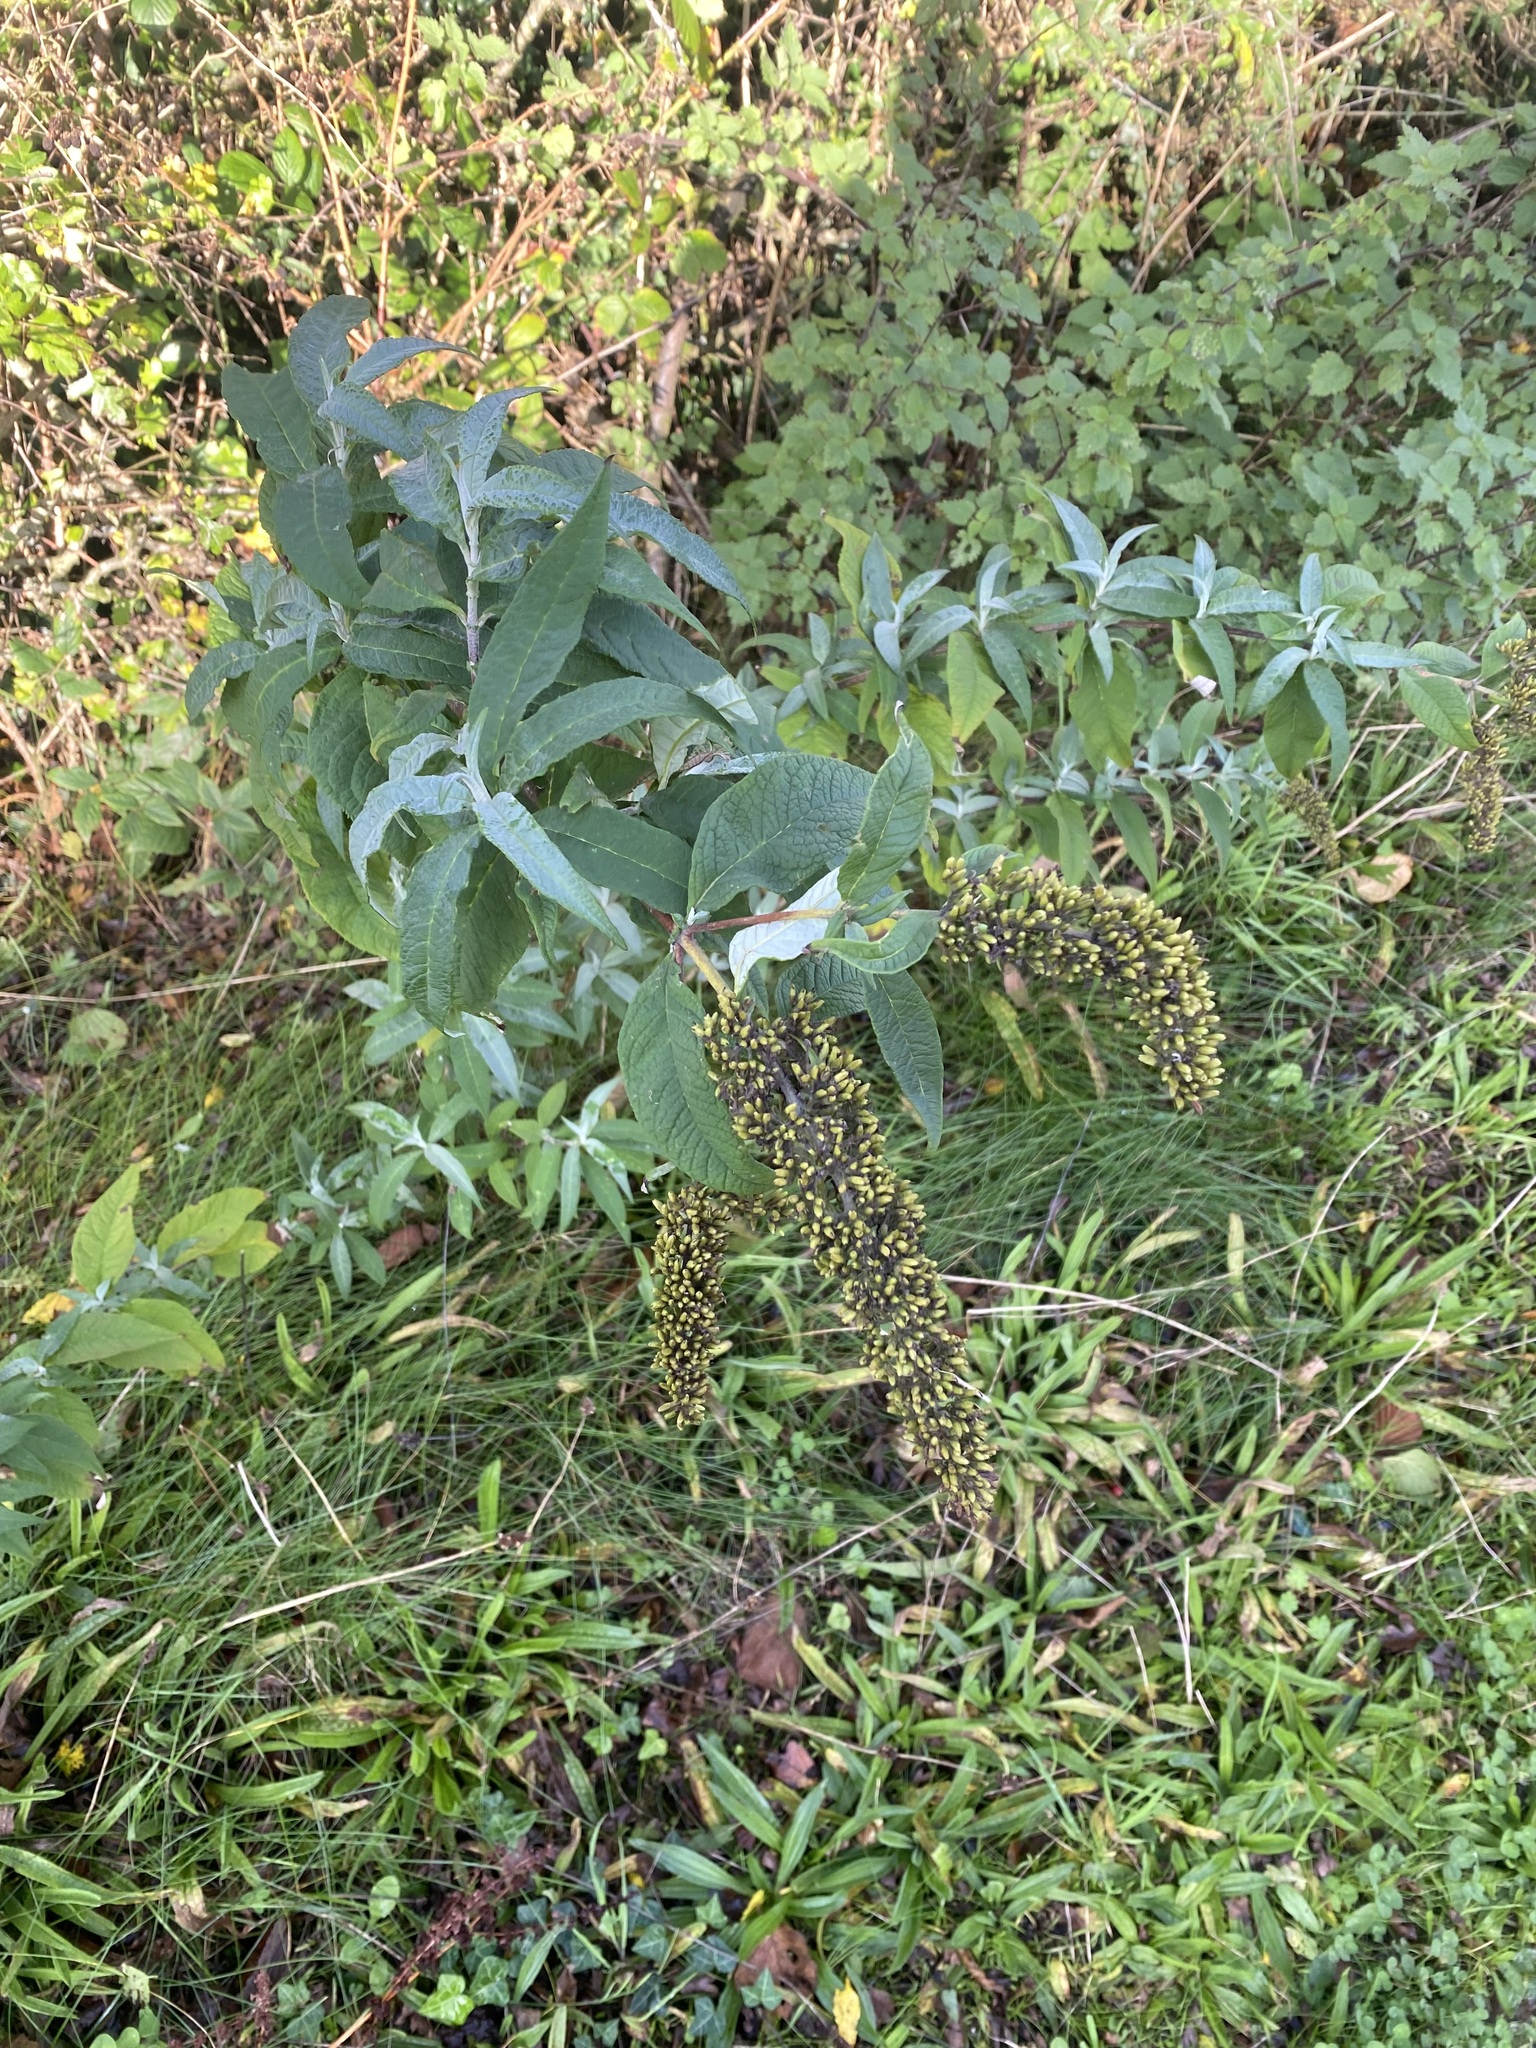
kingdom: Plantae
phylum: Tracheophyta
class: Magnoliopsida
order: Lamiales
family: Scrophulariaceae
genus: Buddleja
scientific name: Buddleja davidii
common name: Butterfly-bush
